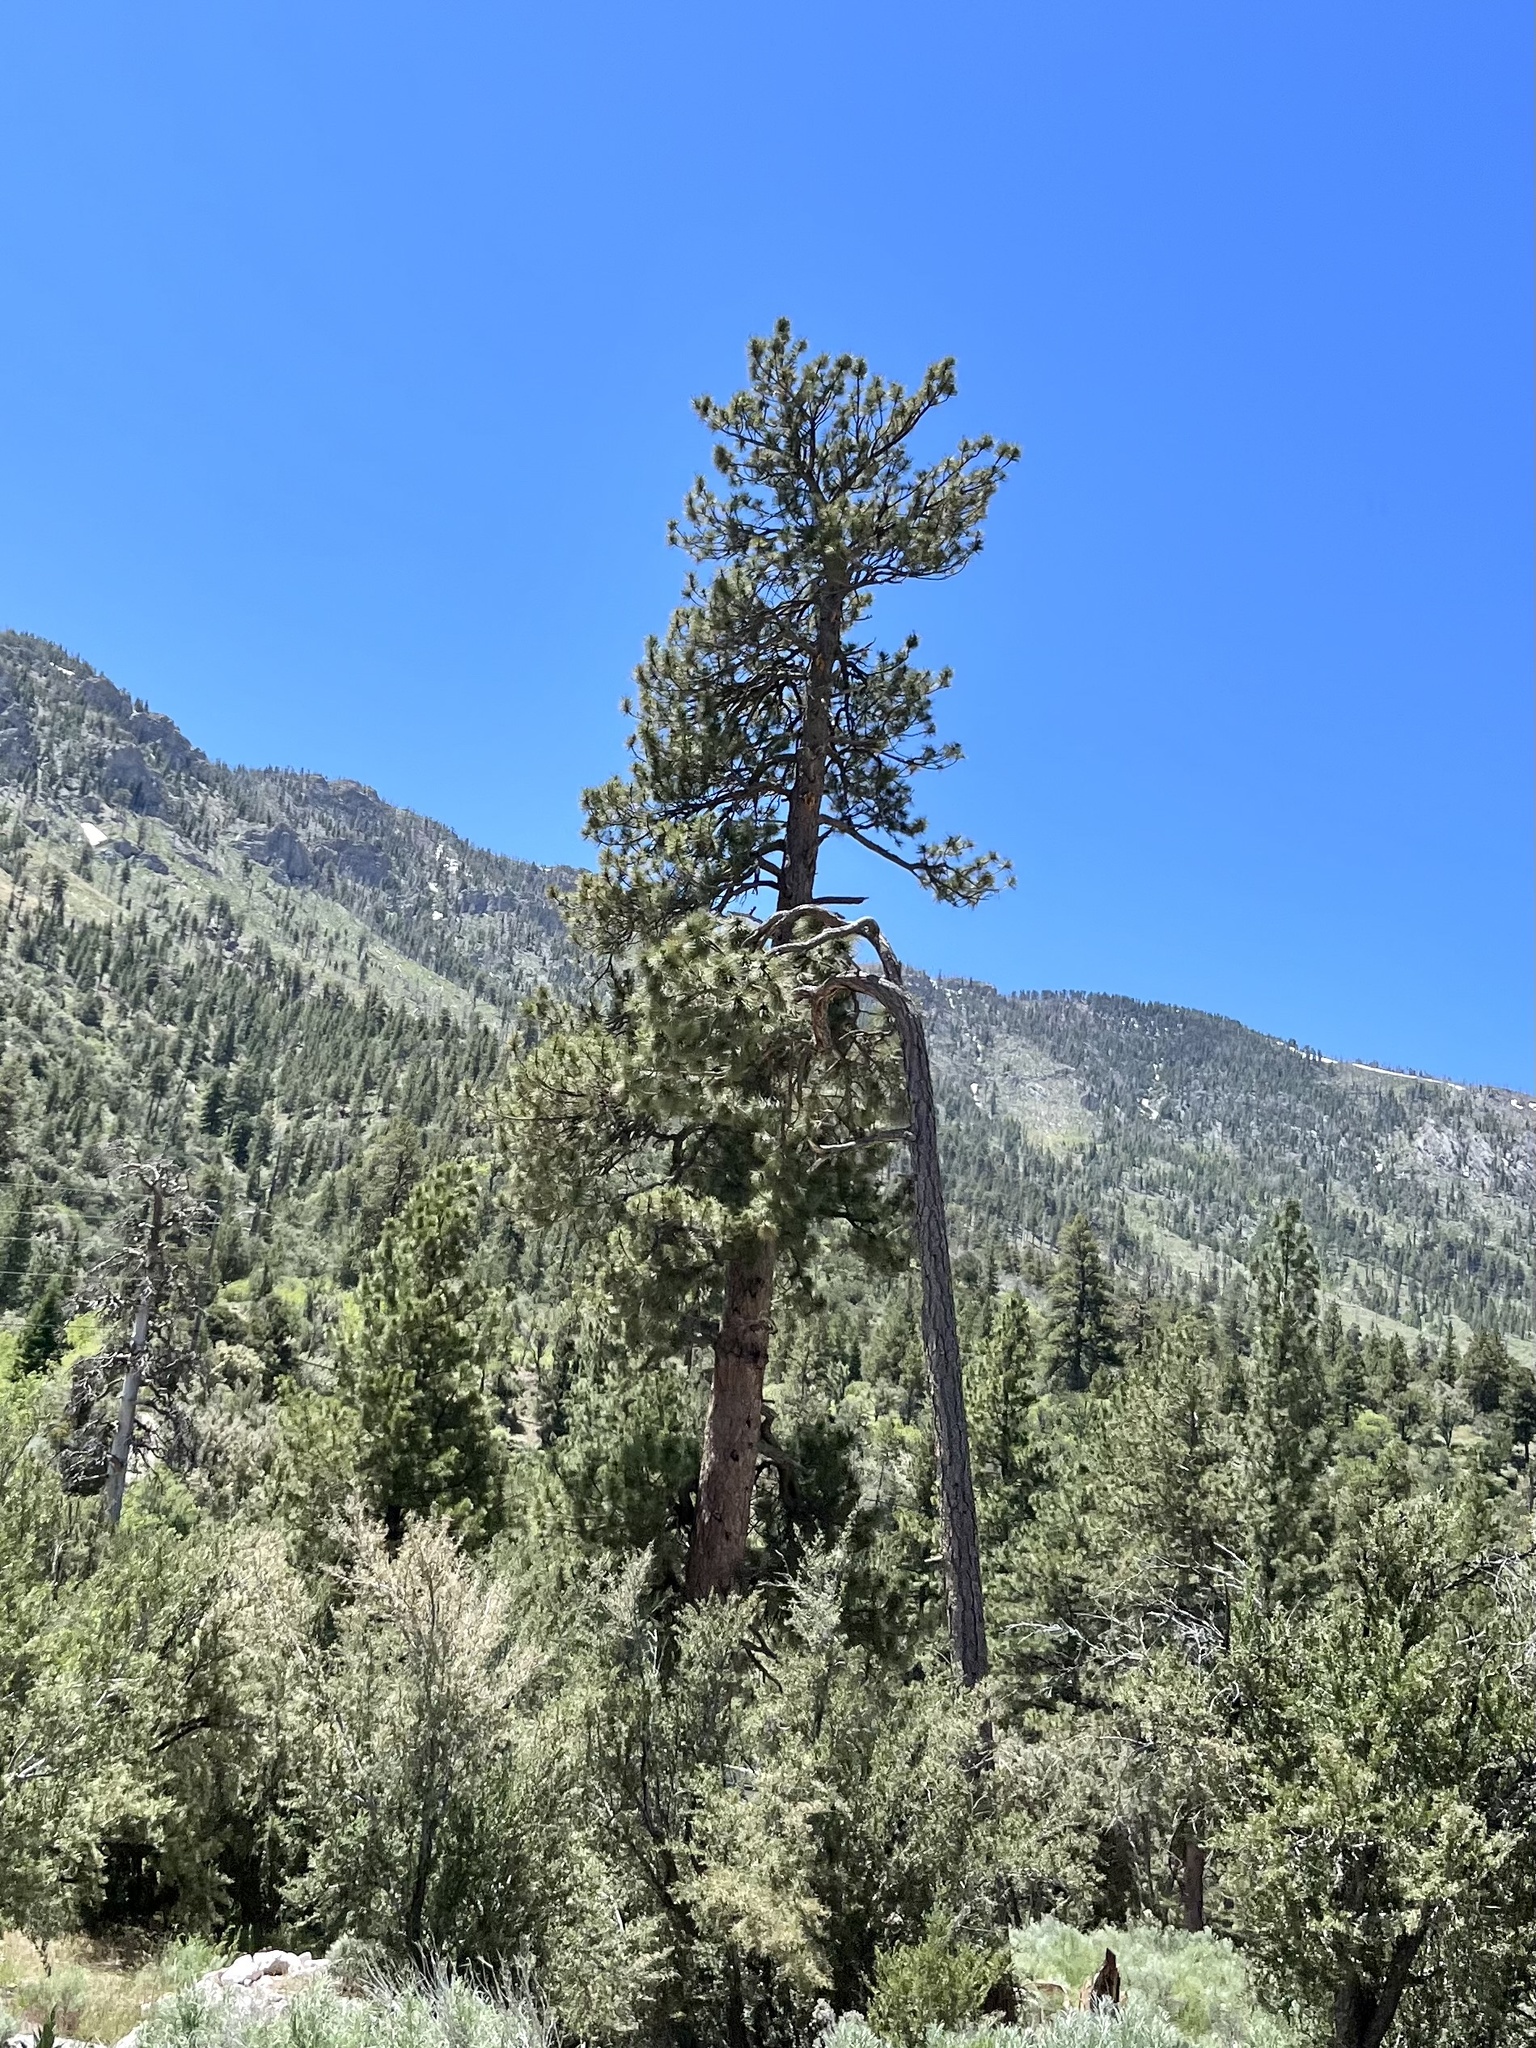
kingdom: Plantae
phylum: Tracheophyta
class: Pinopsida
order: Pinales
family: Pinaceae
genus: Pinus
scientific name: Pinus ponderosa
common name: Western yellow-pine
